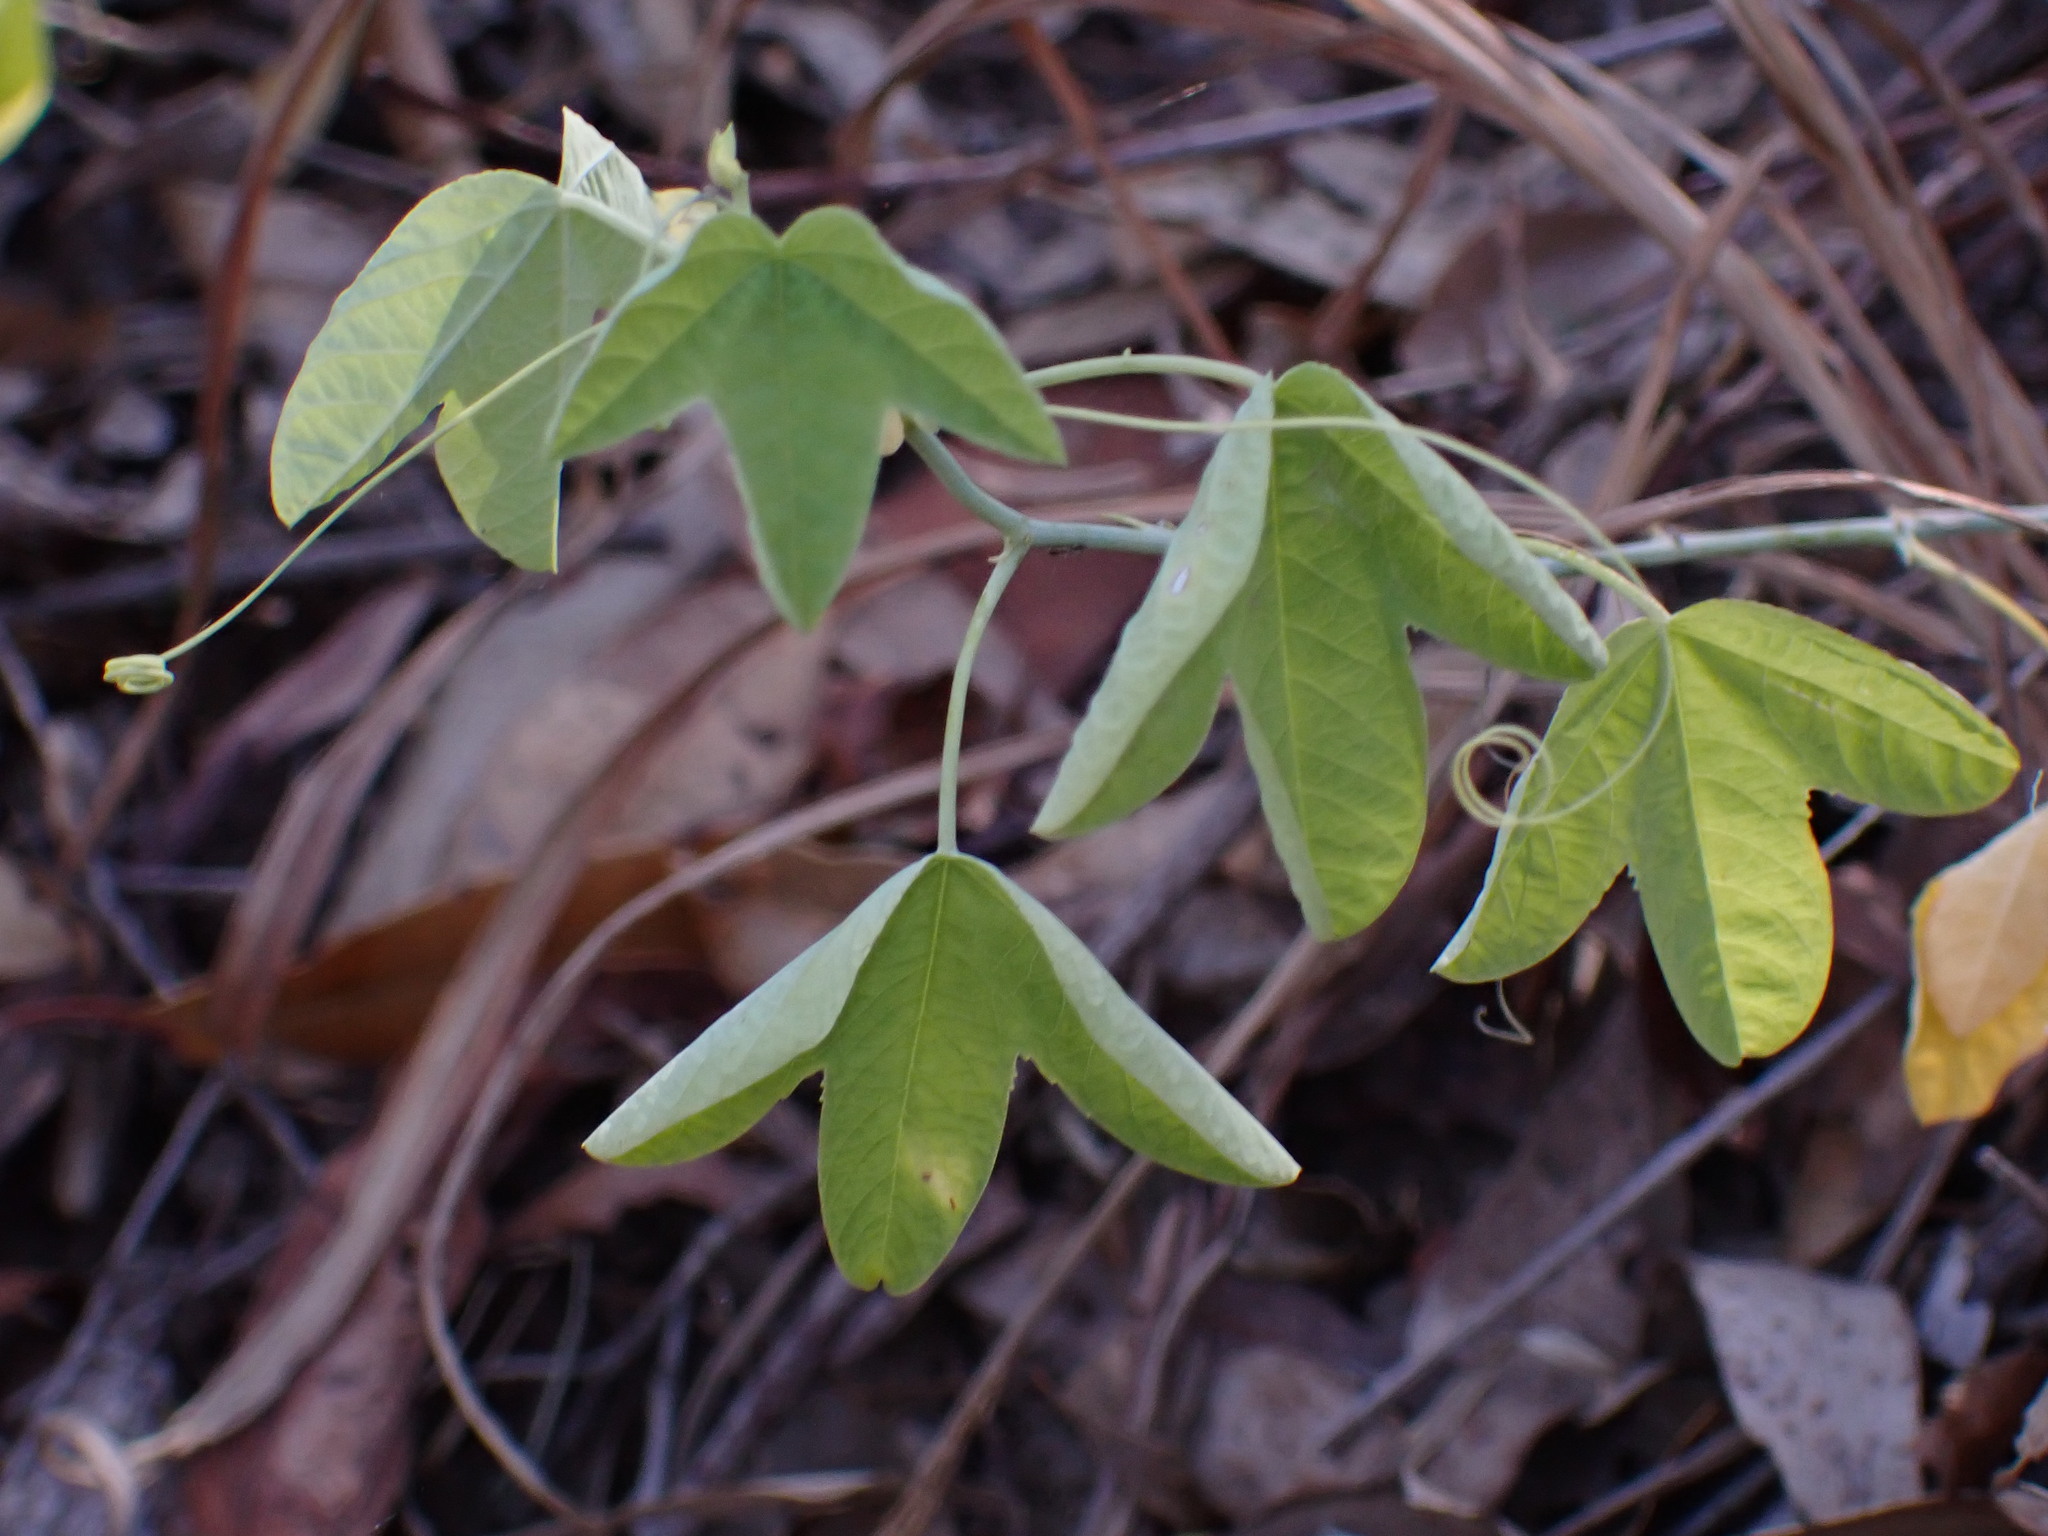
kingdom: Plantae
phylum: Tracheophyta
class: Magnoliopsida
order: Malpighiales
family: Passifloraceae
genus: Passiflora
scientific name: Passiflora subpeltata
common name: White passionflower
